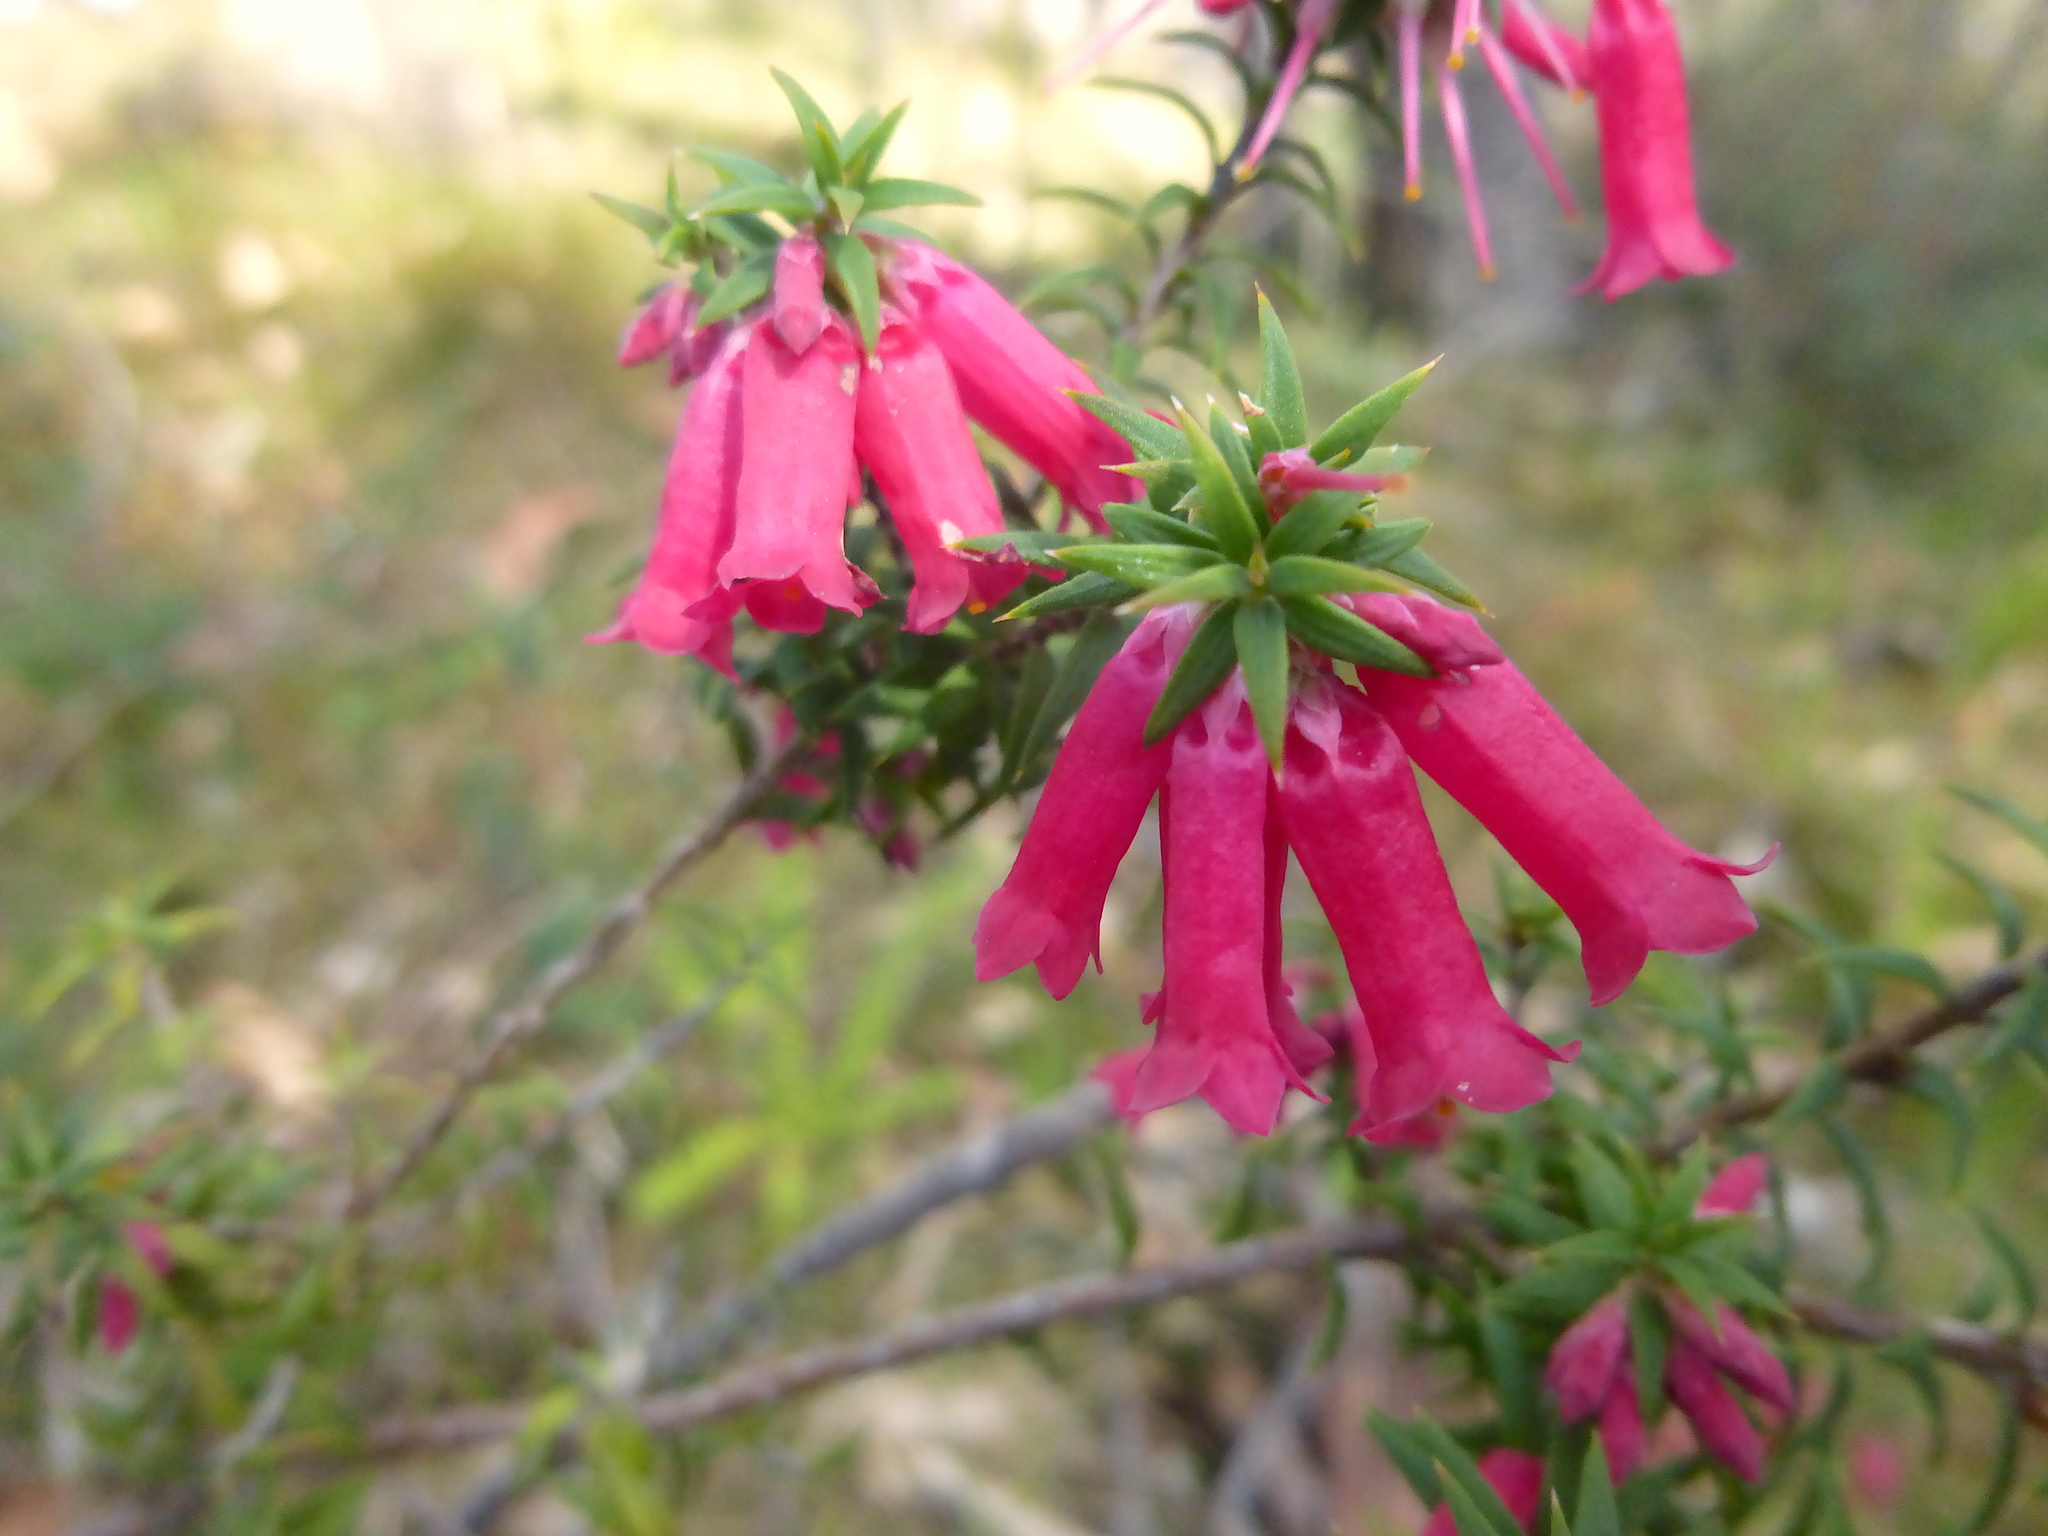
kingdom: Plantae
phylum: Tracheophyta
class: Magnoliopsida
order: Ericales
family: Ericaceae
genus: Epacris
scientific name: Epacris impressa
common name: Common-heath
